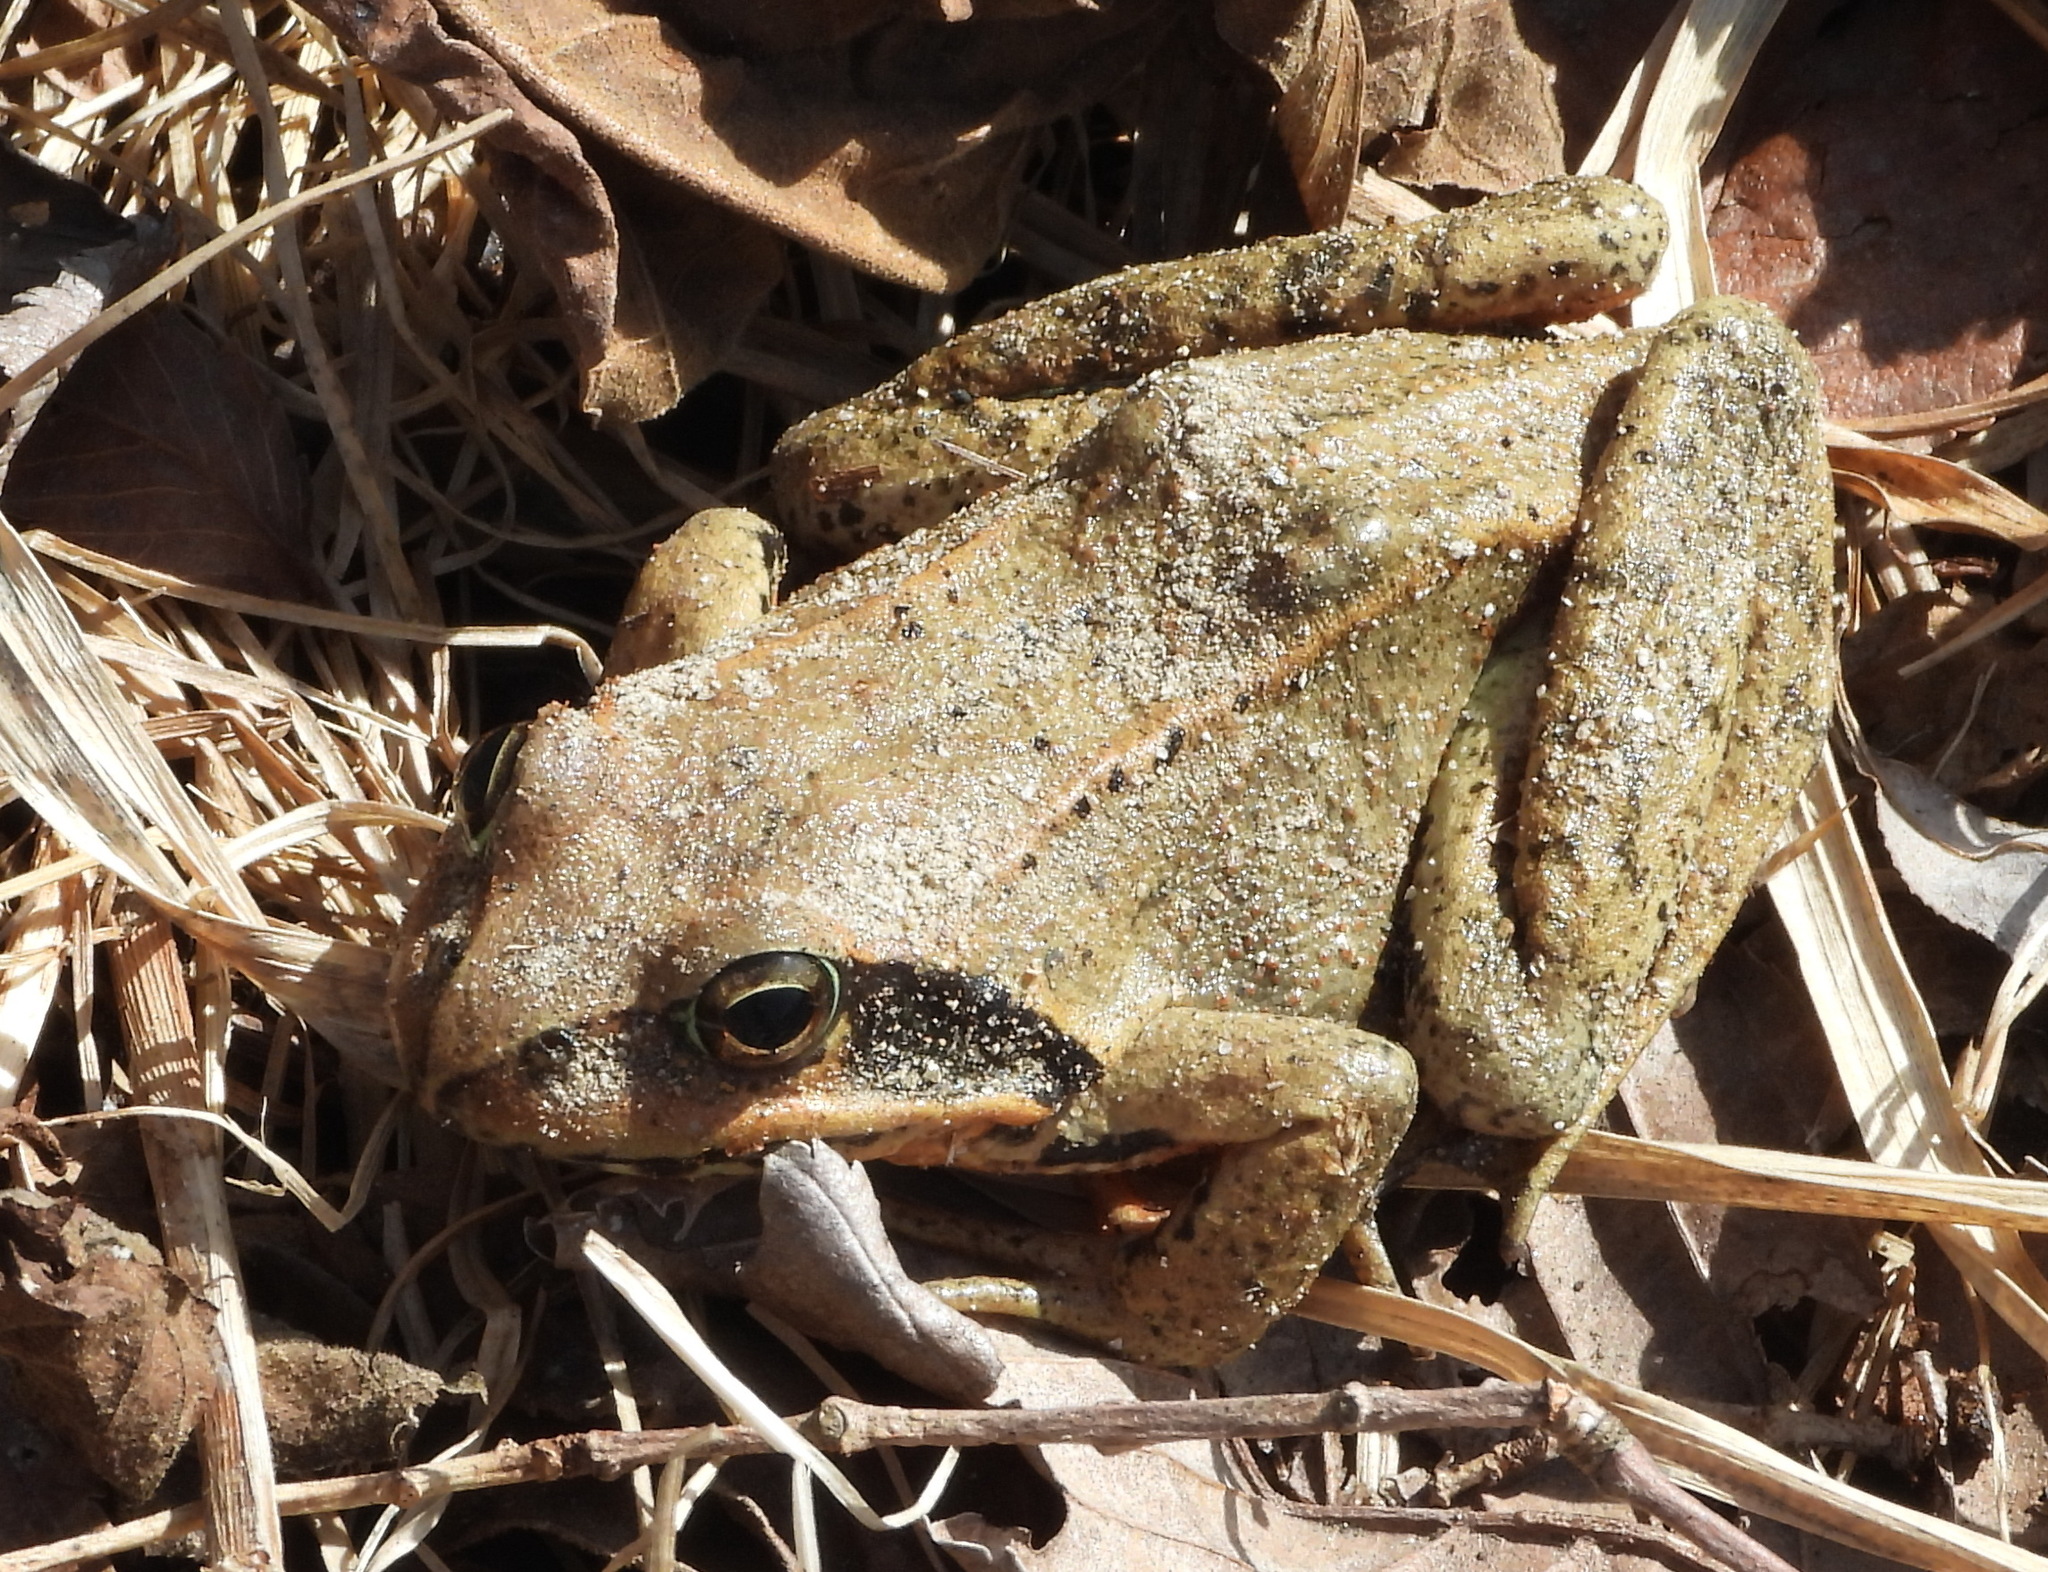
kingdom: Animalia
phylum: Chordata
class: Amphibia
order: Anura
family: Ranidae
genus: Rana
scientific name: Rana dybowskii
